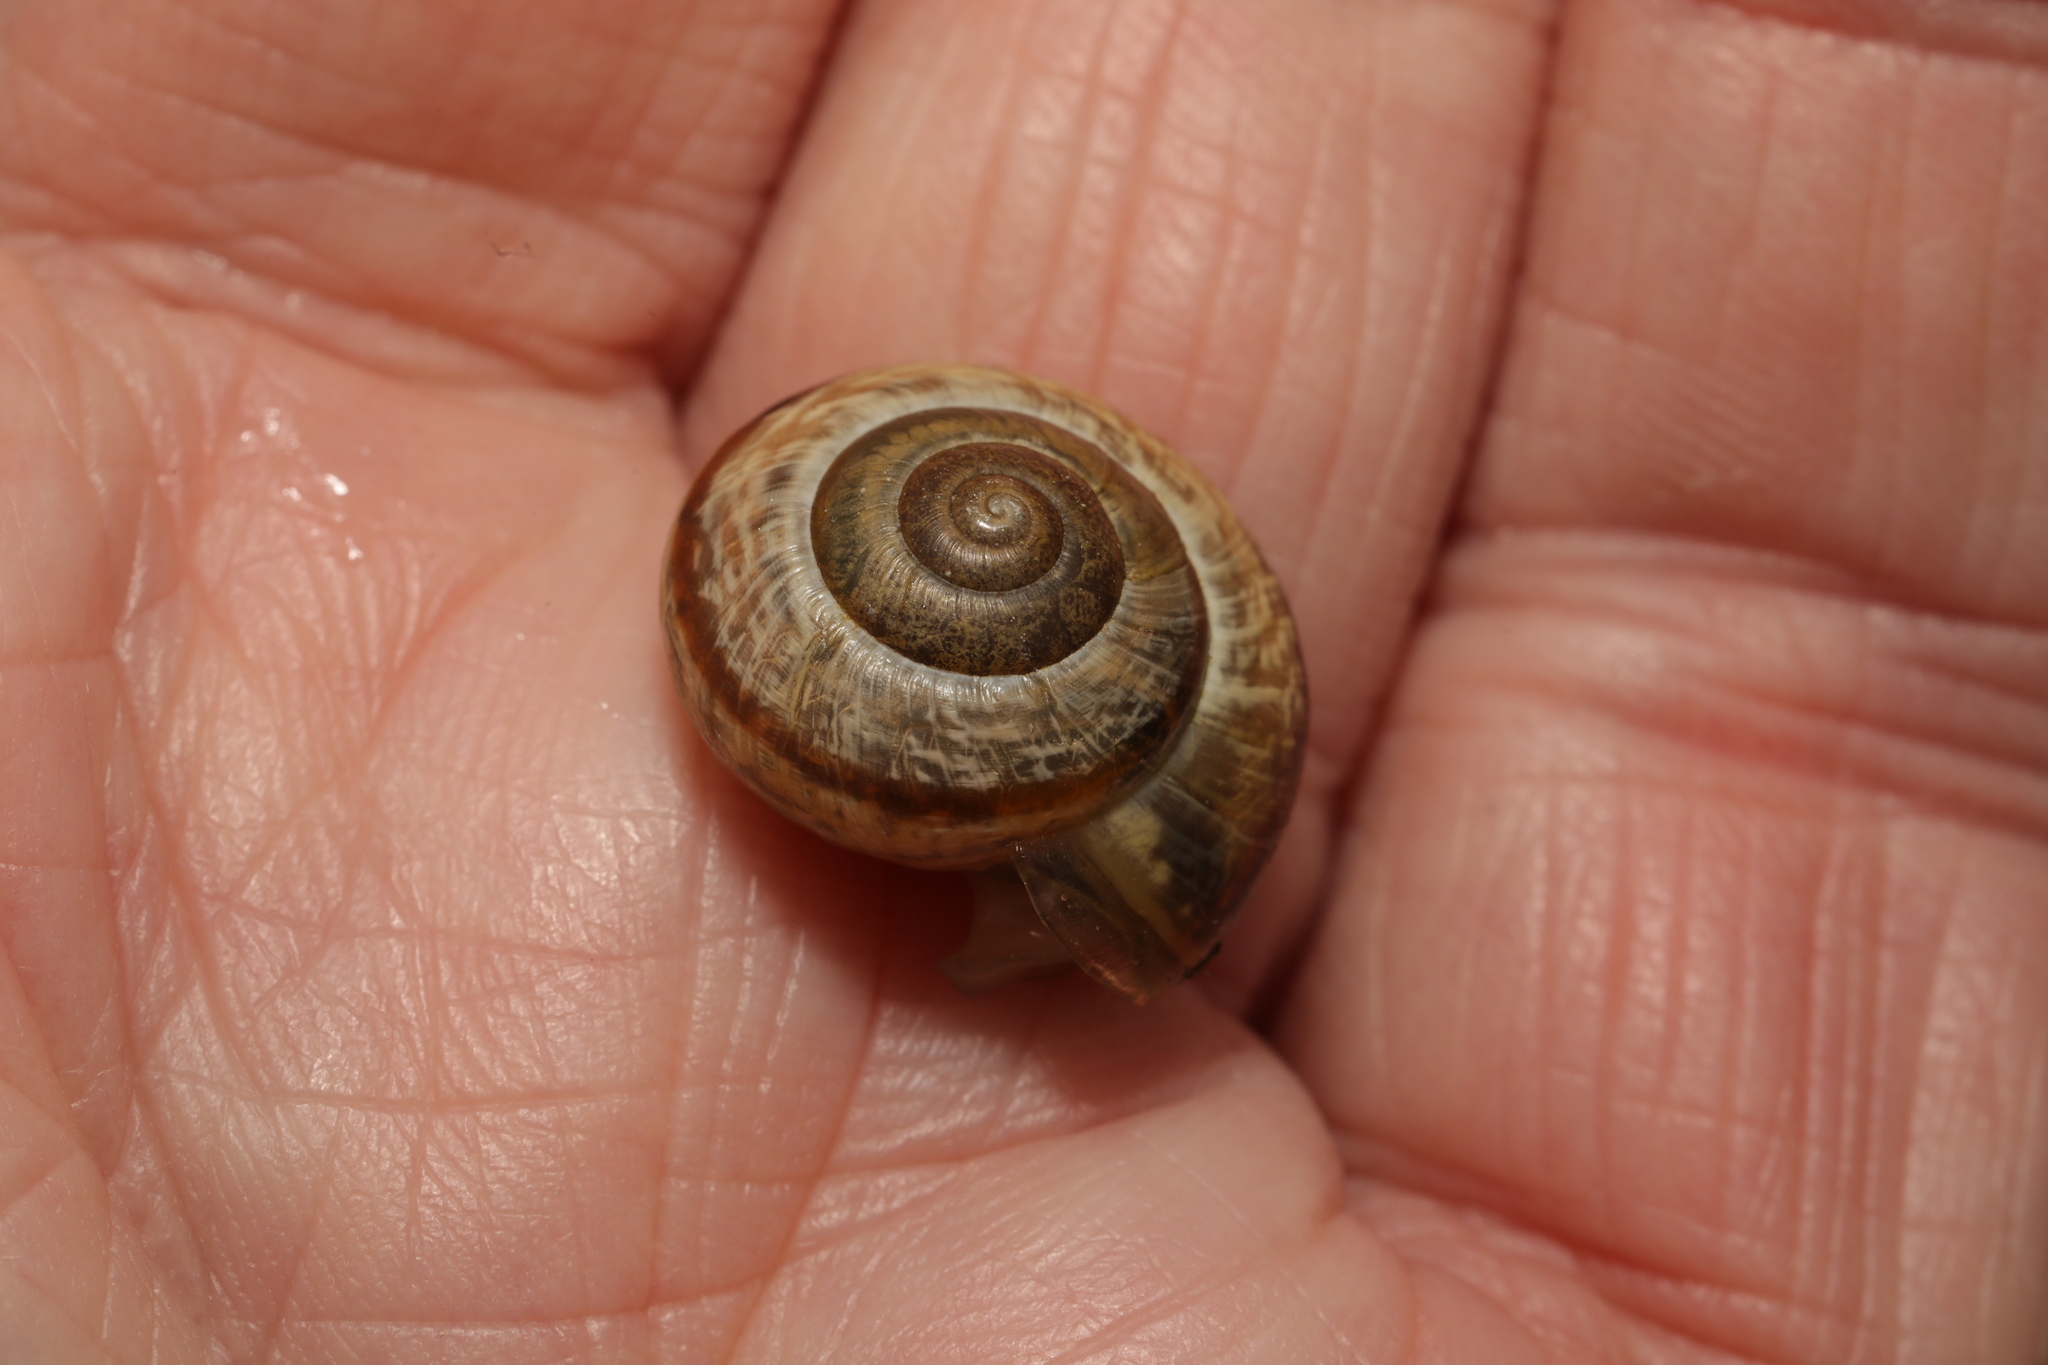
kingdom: Animalia
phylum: Mollusca
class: Gastropoda
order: Stylommatophora
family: Helicidae
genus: Arianta
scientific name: Arianta arbustorum
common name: Copse snail
